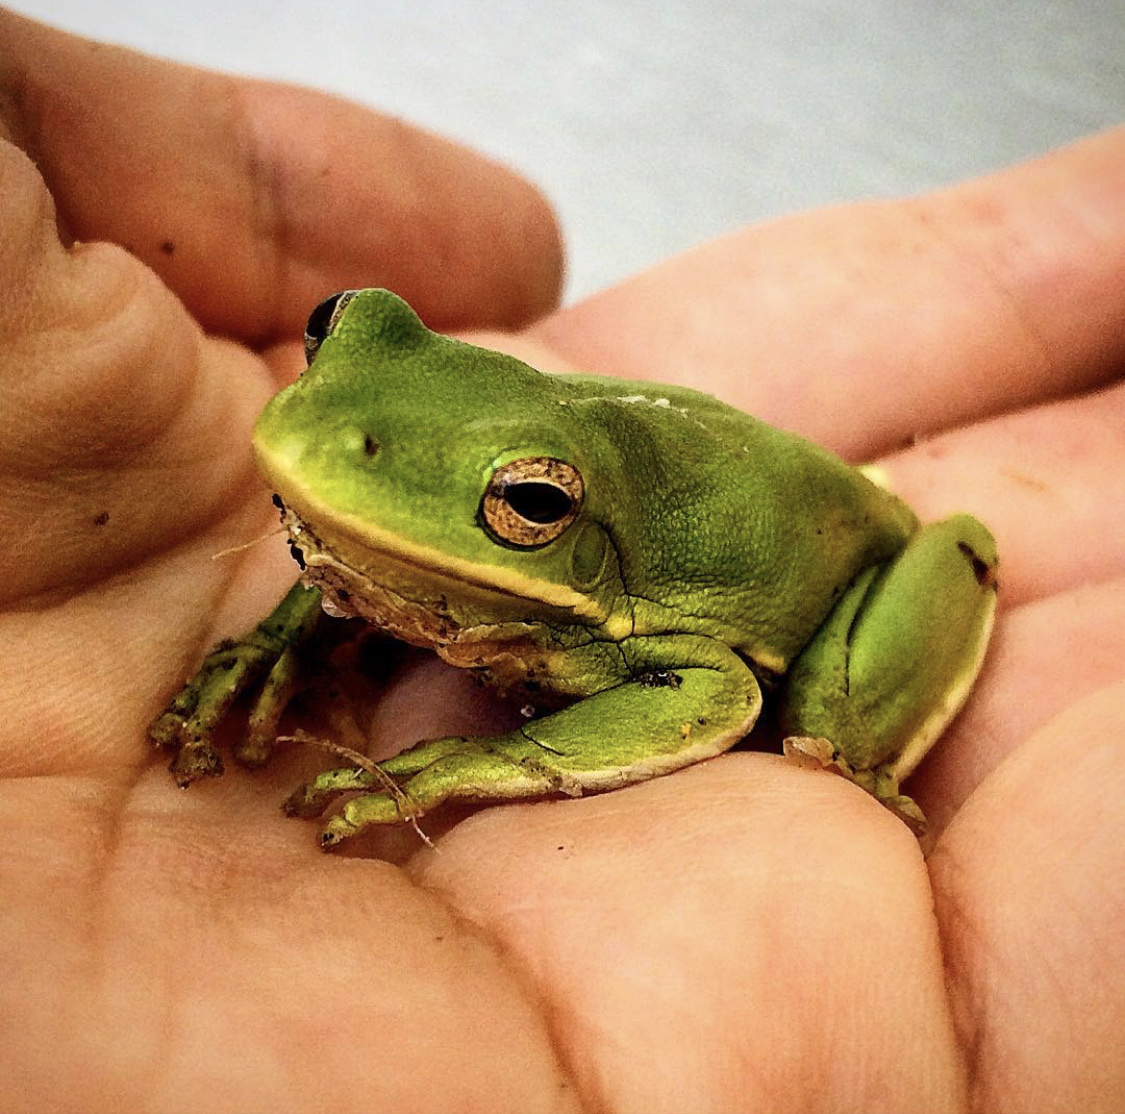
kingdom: Animalia
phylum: Chordata
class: Amphibia
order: Anura
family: Hylidae
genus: Dryophytes
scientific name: Dryophytes cinereus
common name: Green treefrog
